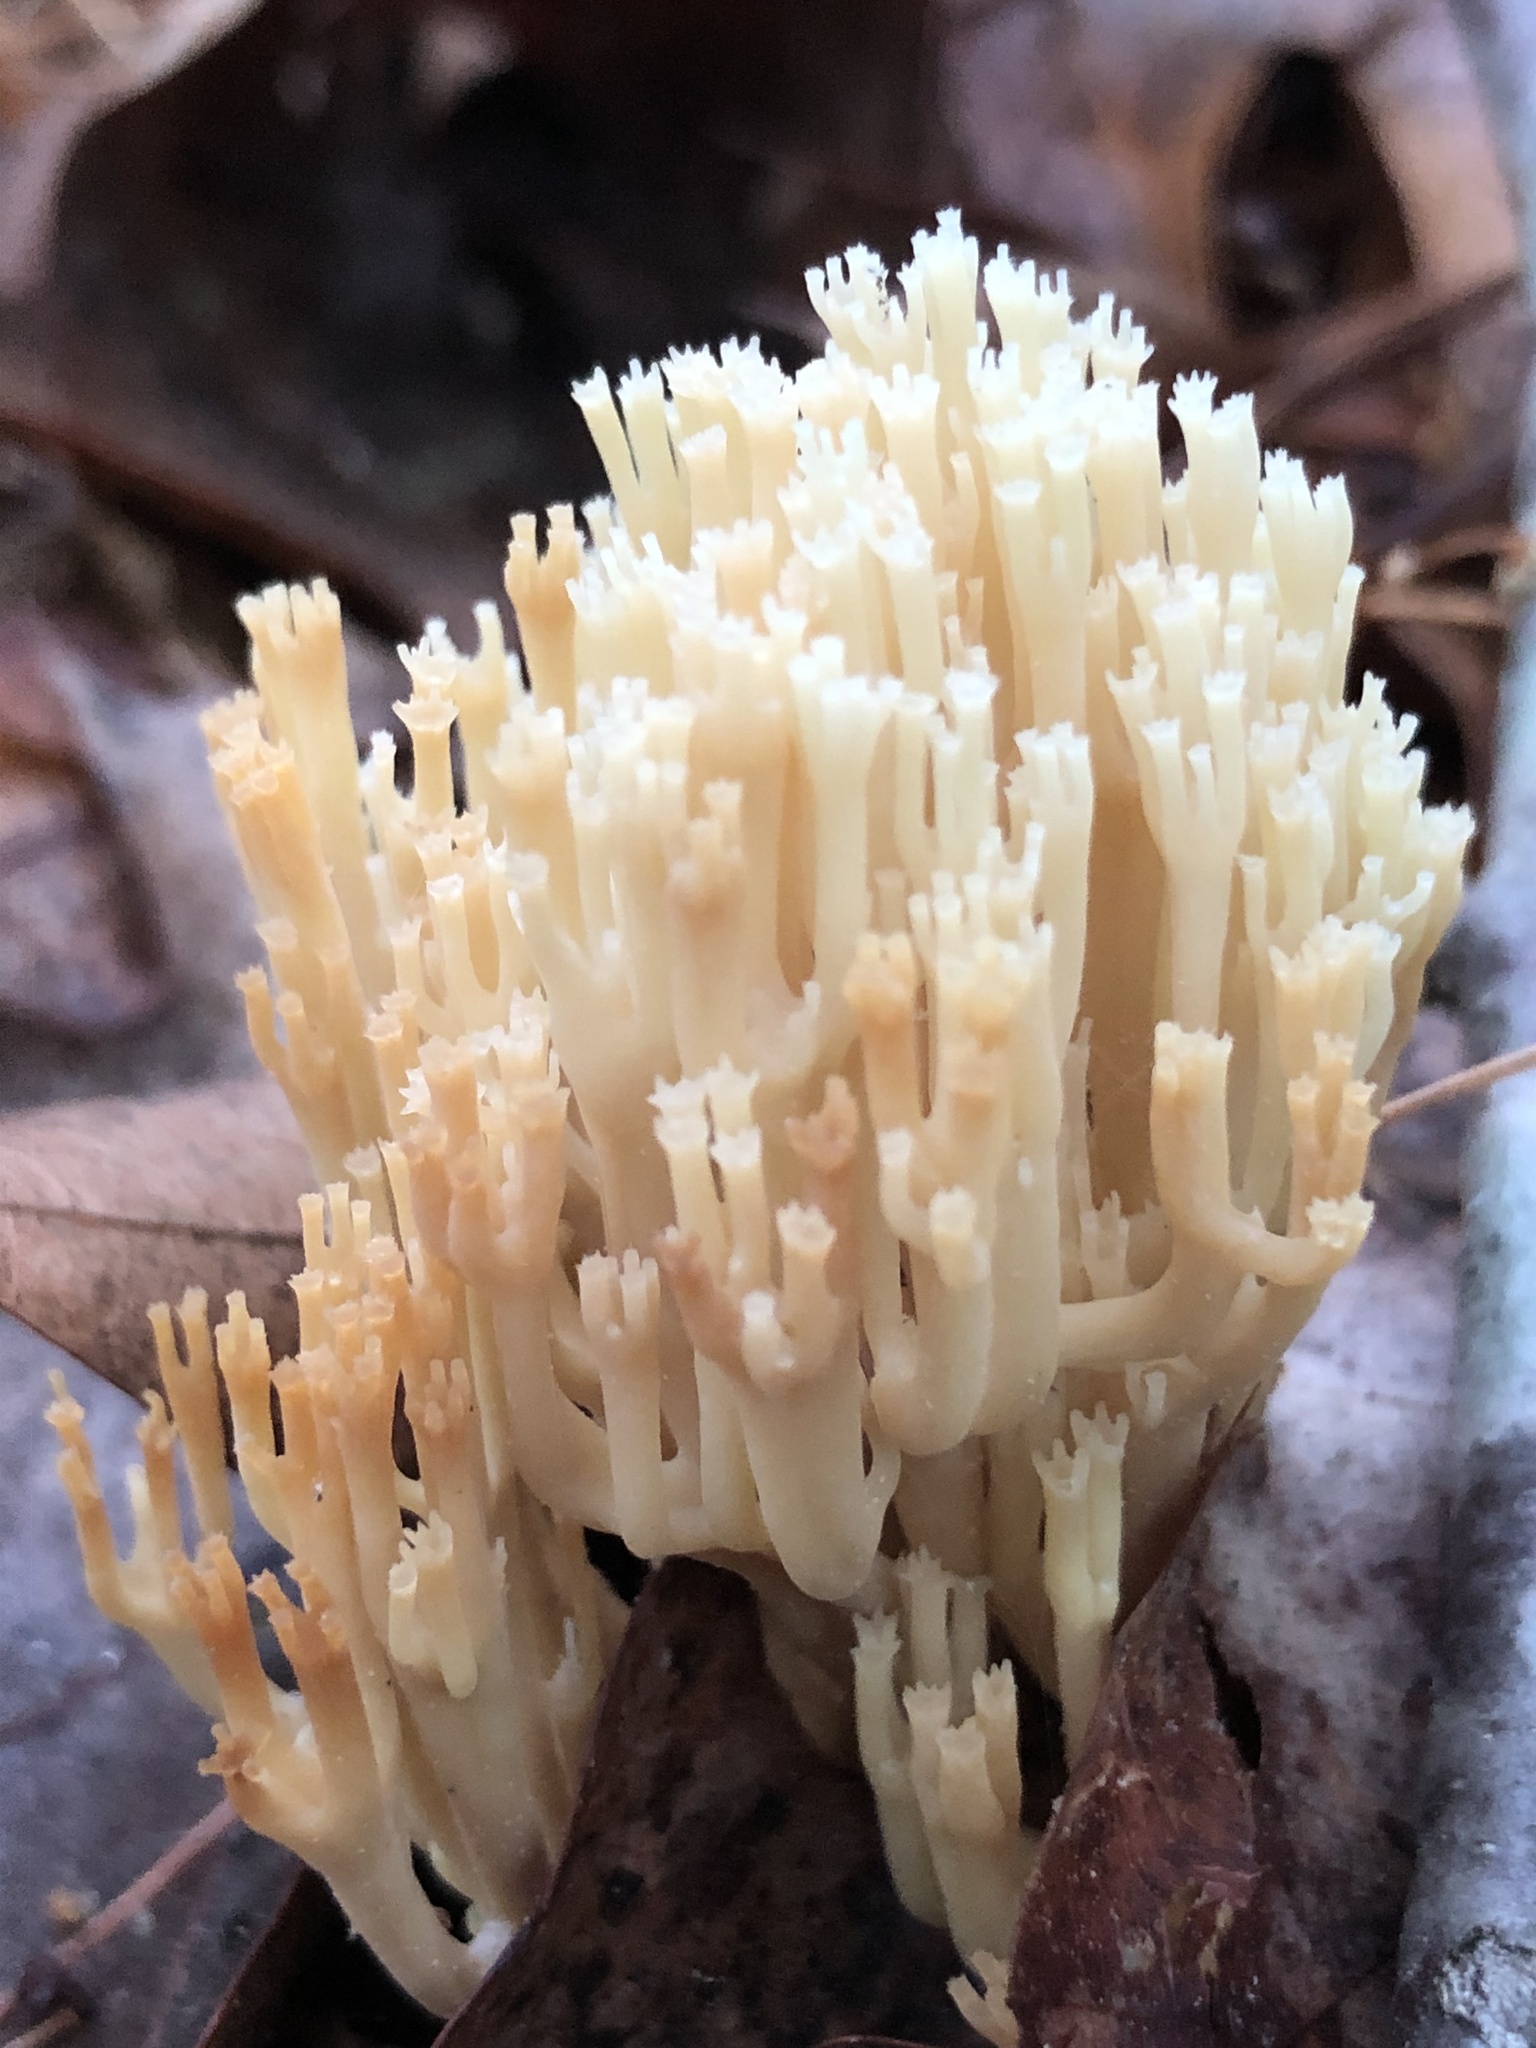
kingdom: Fungi
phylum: Basidiomycota
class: Agaricomycetes
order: Russulales
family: Auriscalpiaceae
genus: Artomyces
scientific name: Artomyces pyxidatus
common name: Crown-tipped coral fungus
